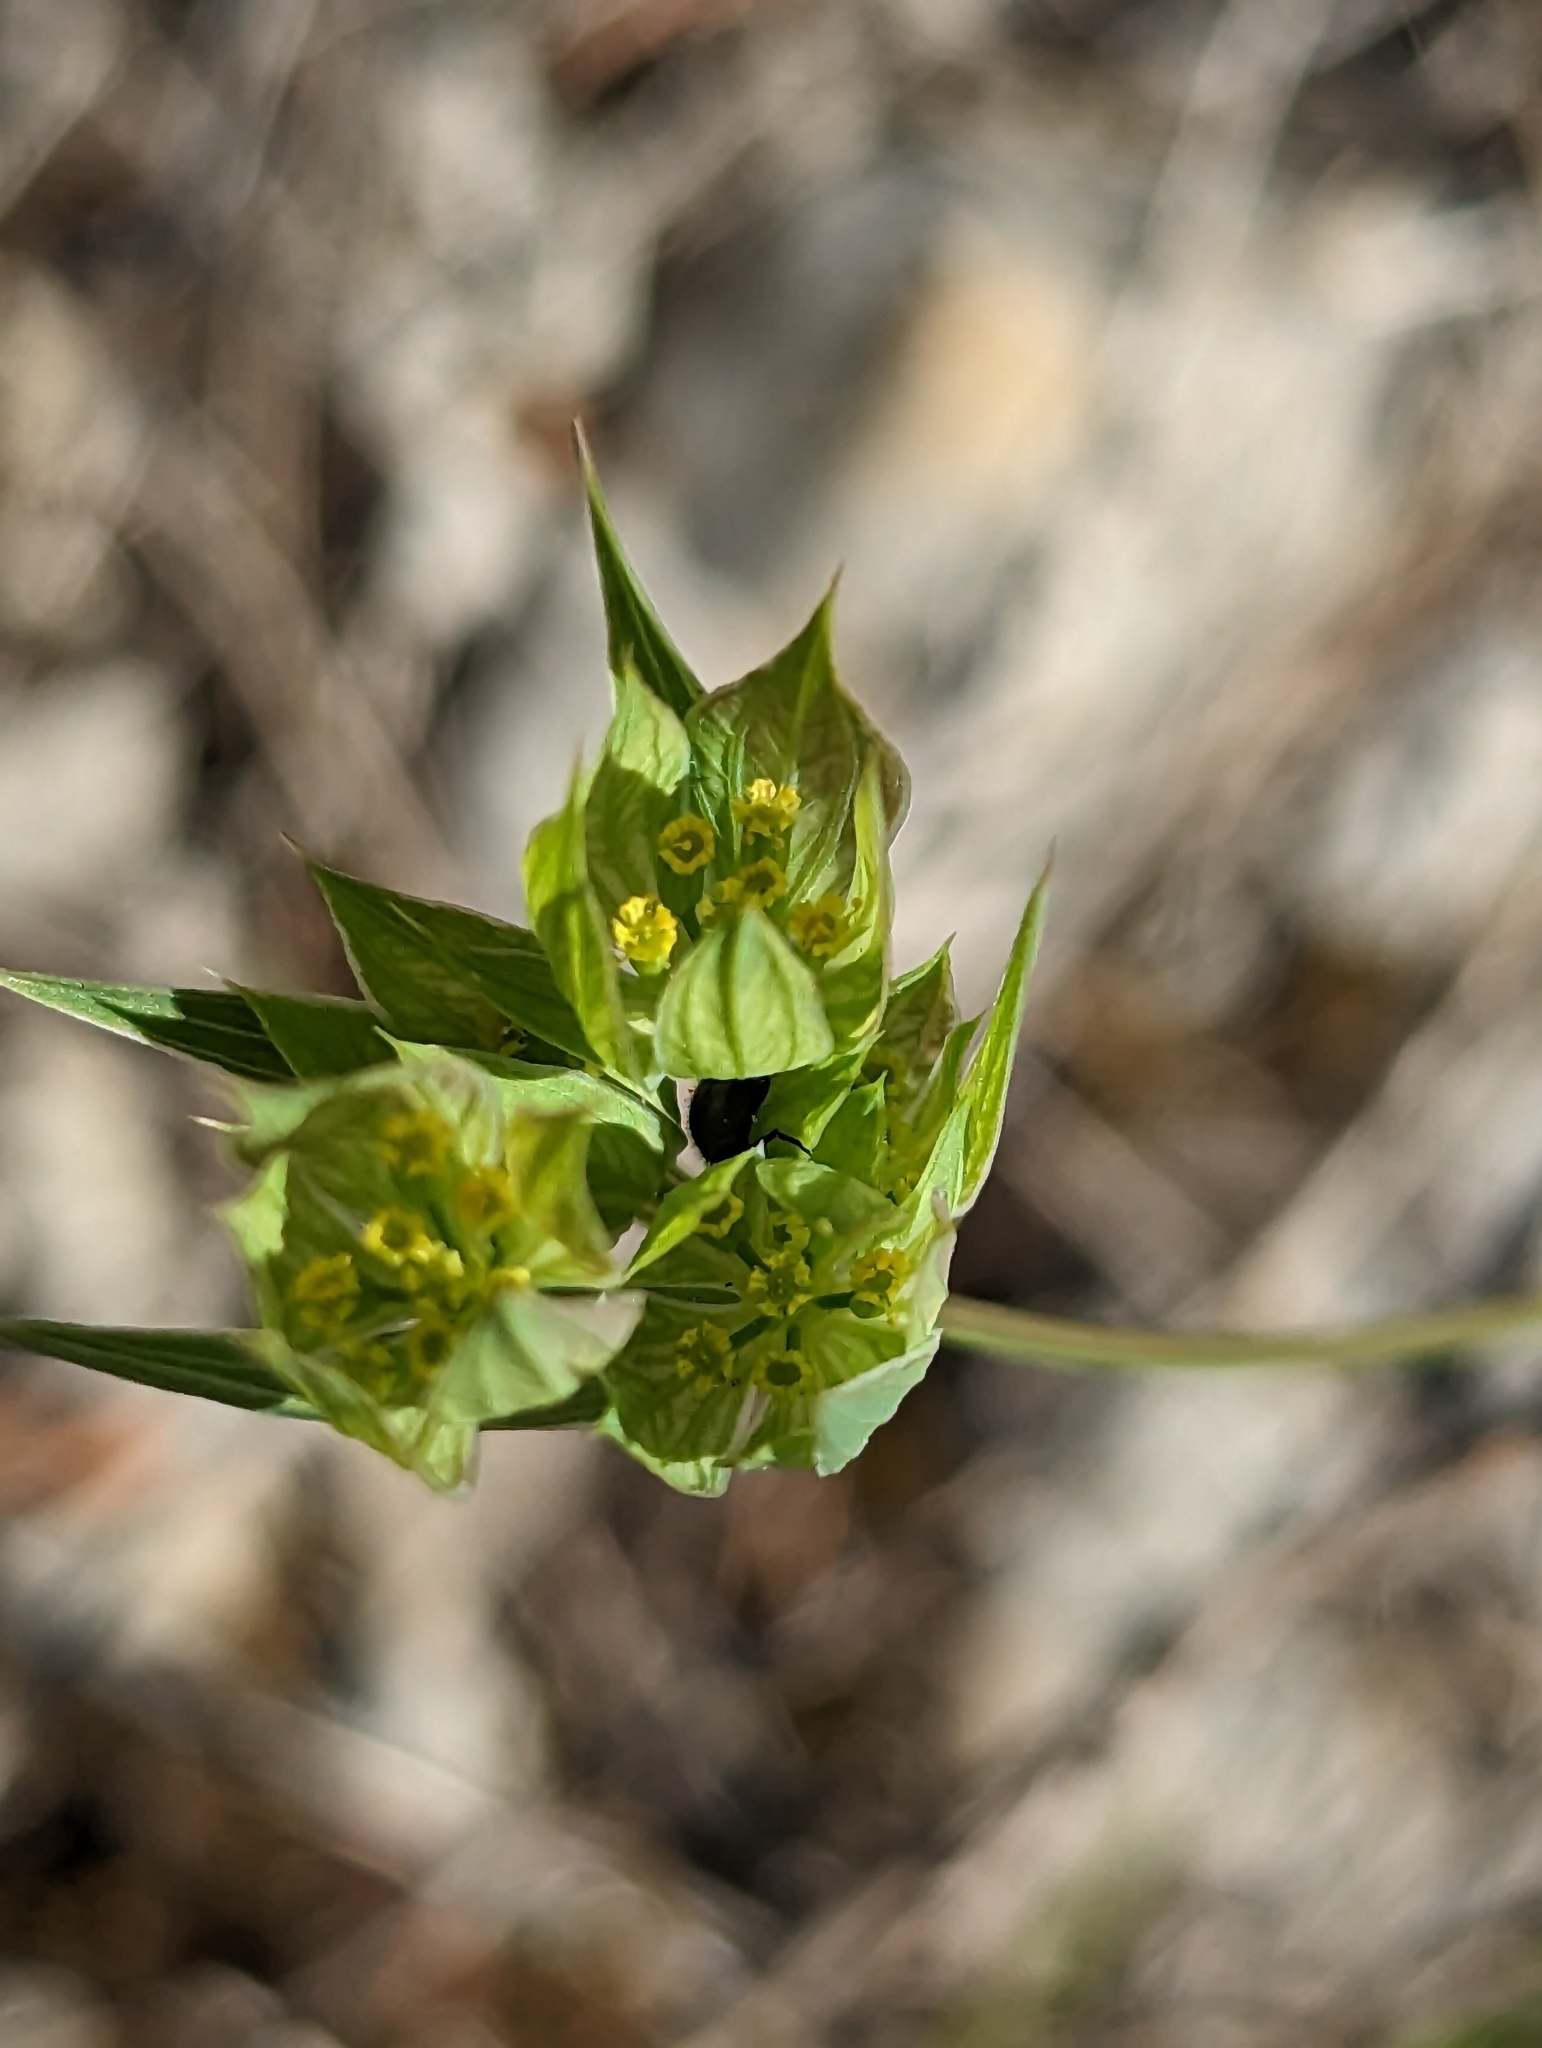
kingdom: Plantae
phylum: Tracheophyta
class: Magnoliopsida
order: Apiales
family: Apiaceae
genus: Bupleurum
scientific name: Bupleurum baldense
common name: Small hare's-ear
